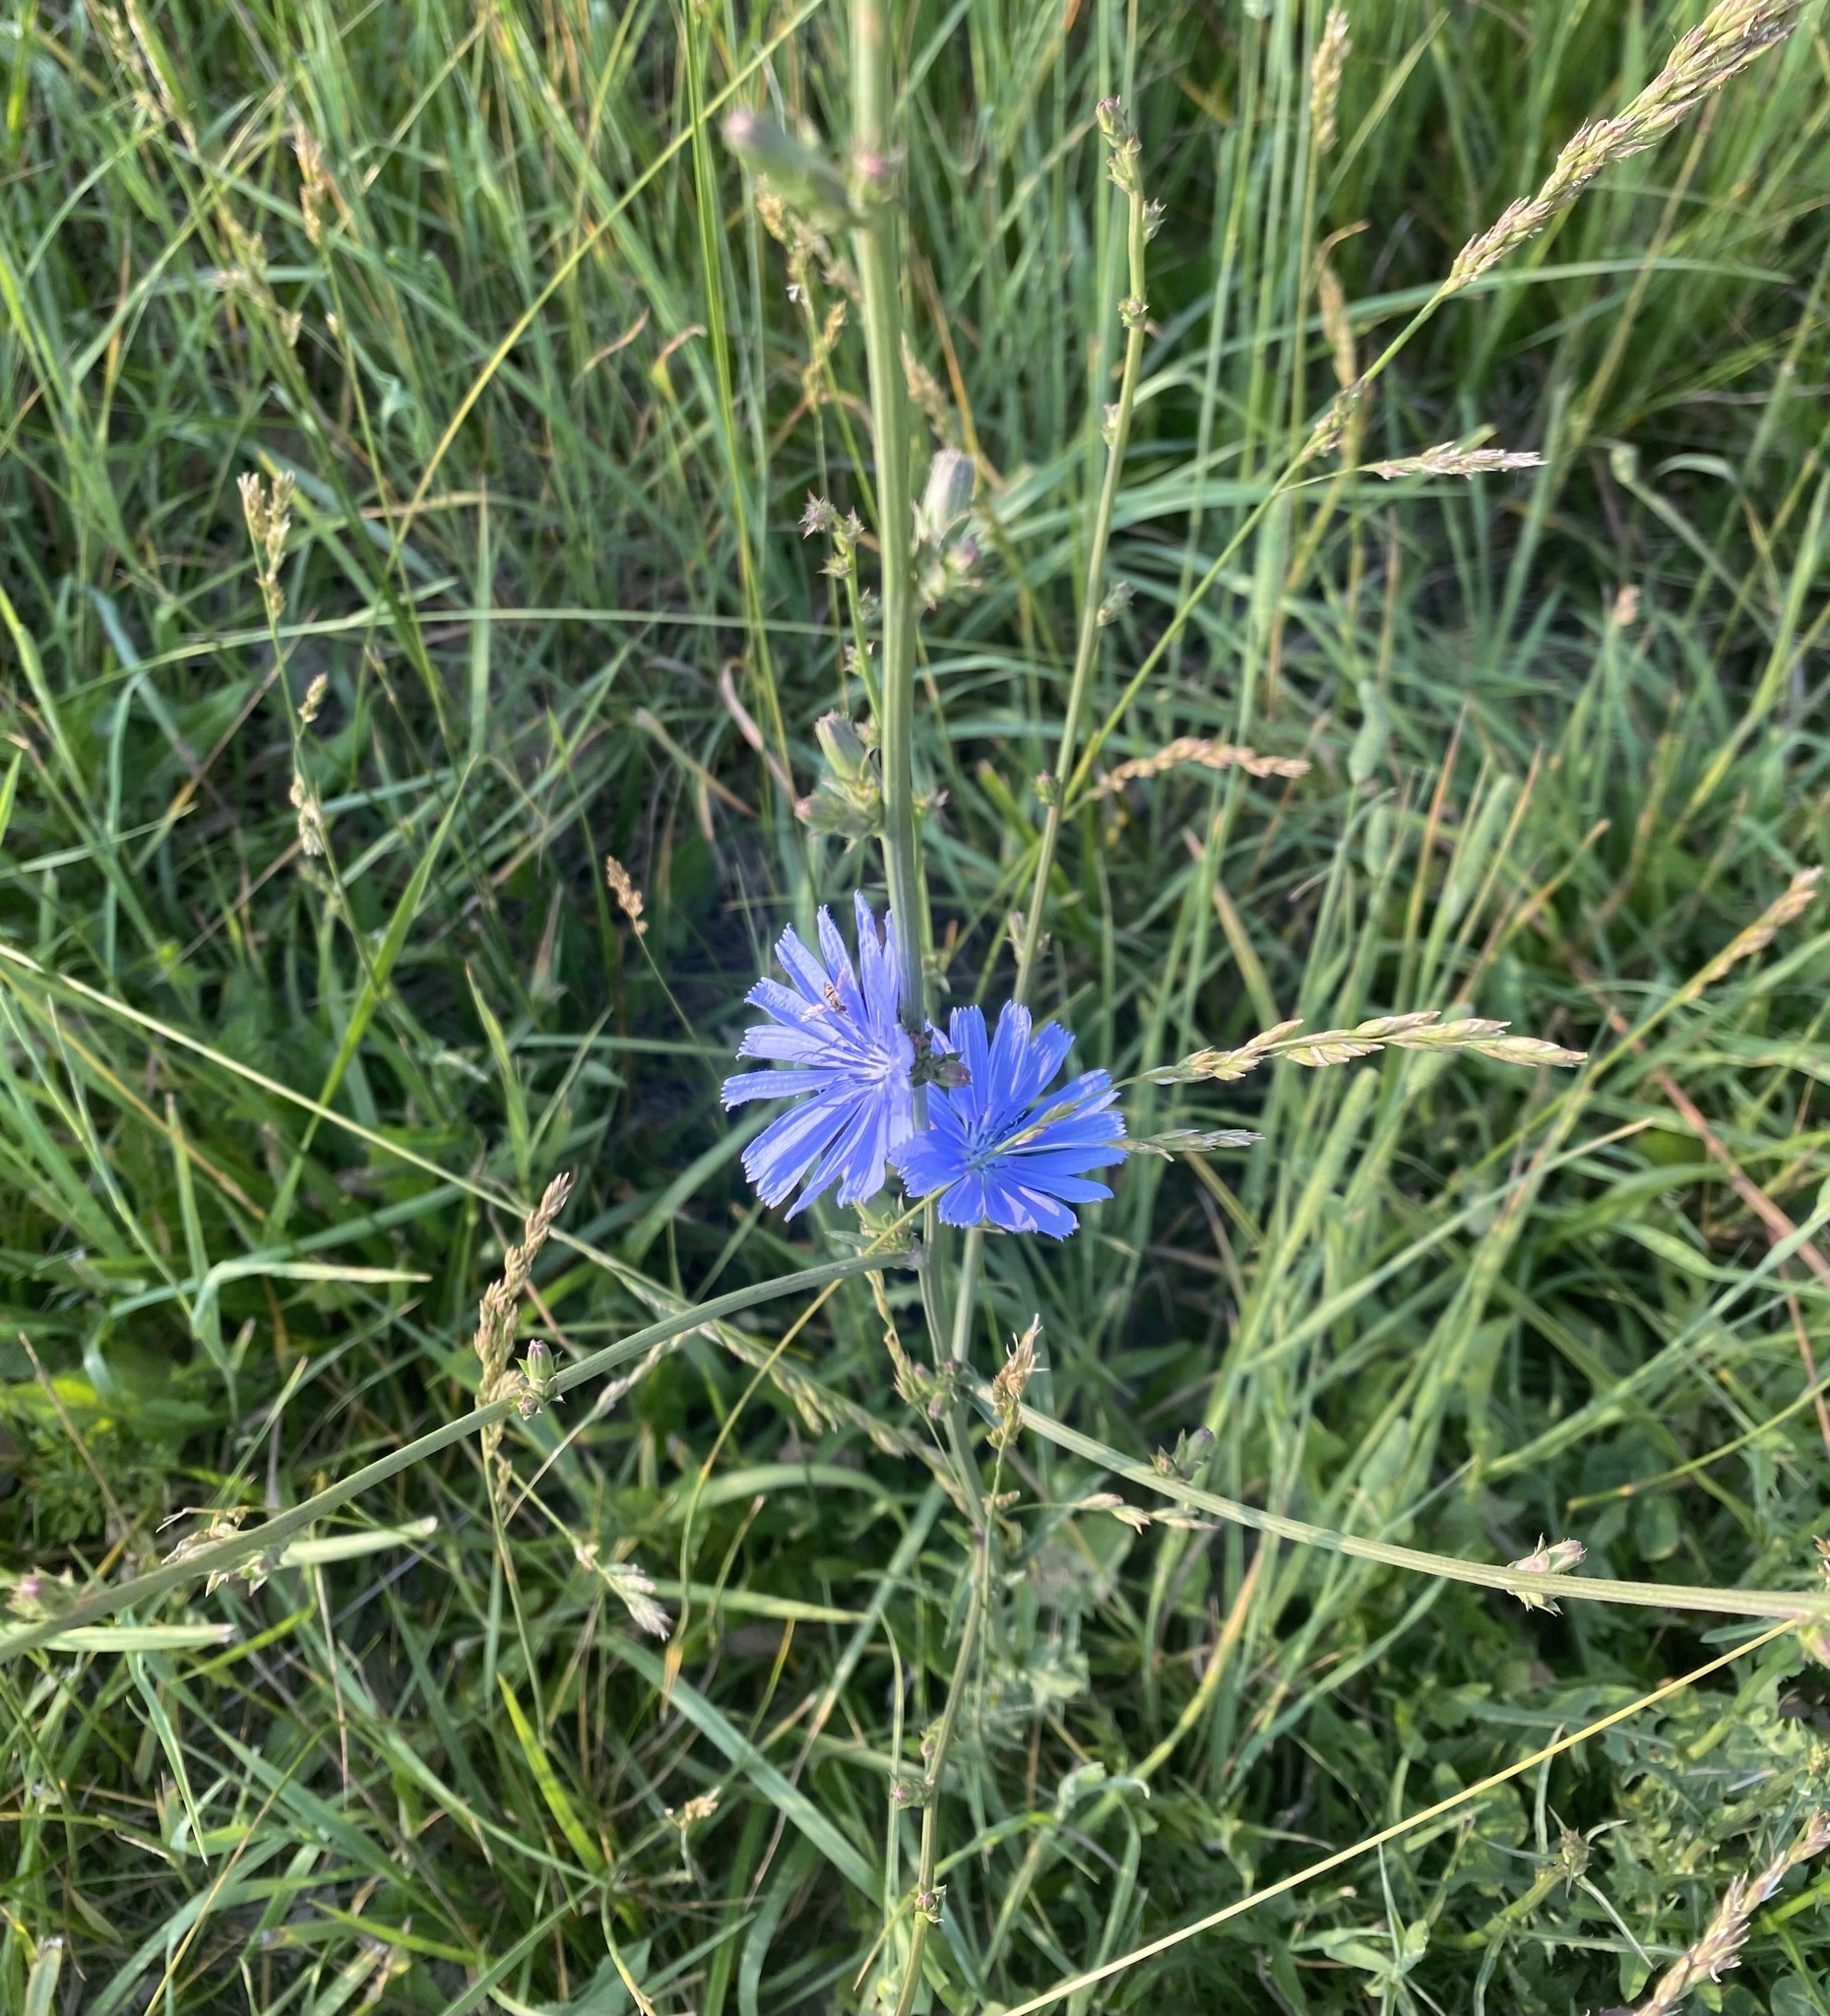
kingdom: Plantae
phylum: Tracheophyta
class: Magnoliopsida
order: Asterales
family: Asteraceae
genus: Cichorium
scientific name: Cichorium intybus
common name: Chicory
